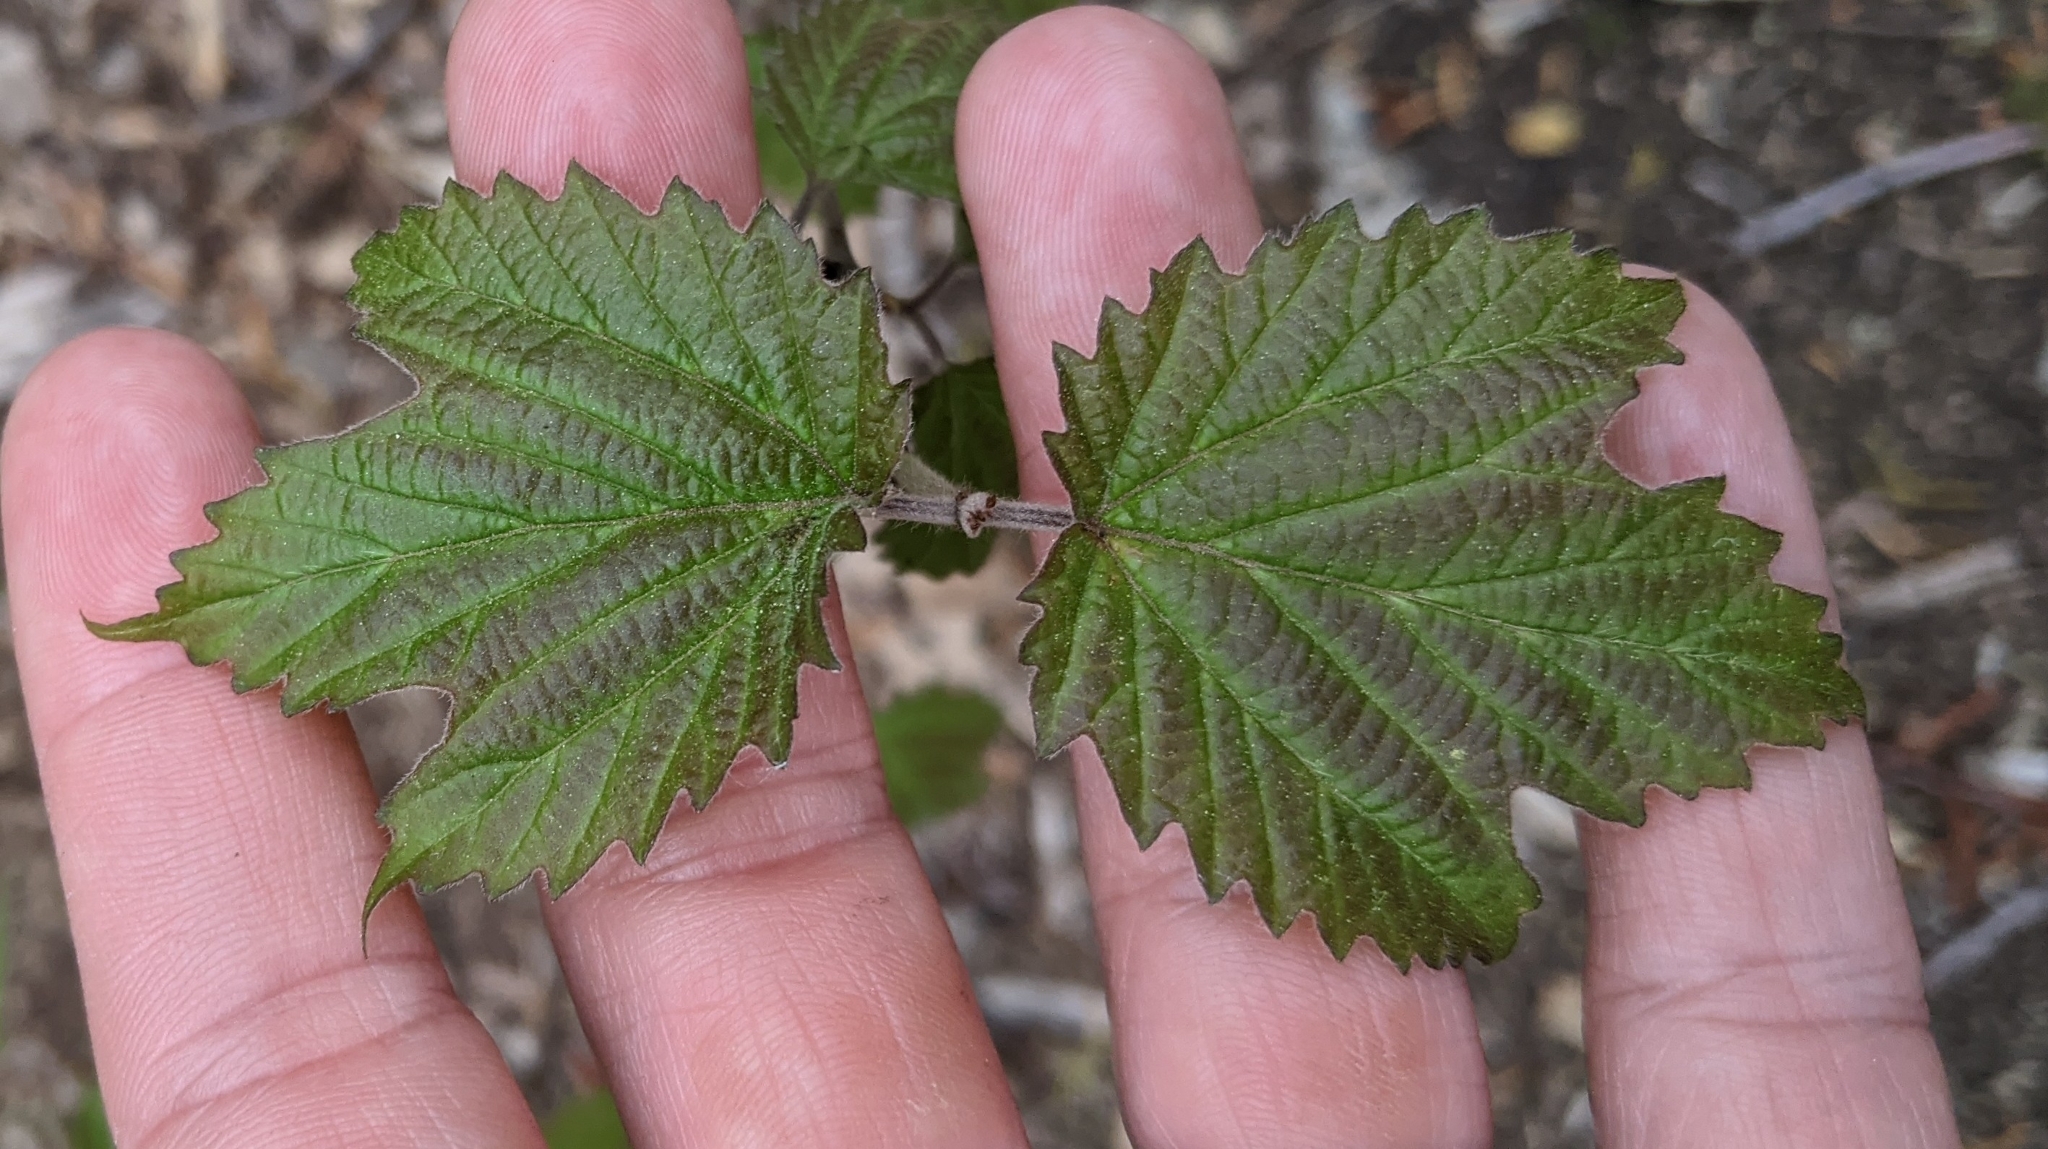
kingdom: Plantae
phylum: Tracheophyta
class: Magnoliopsida
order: Dipsacales
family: Viburnaceae
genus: Viburnum
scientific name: Viburnum acerifolium
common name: Dockmackie
